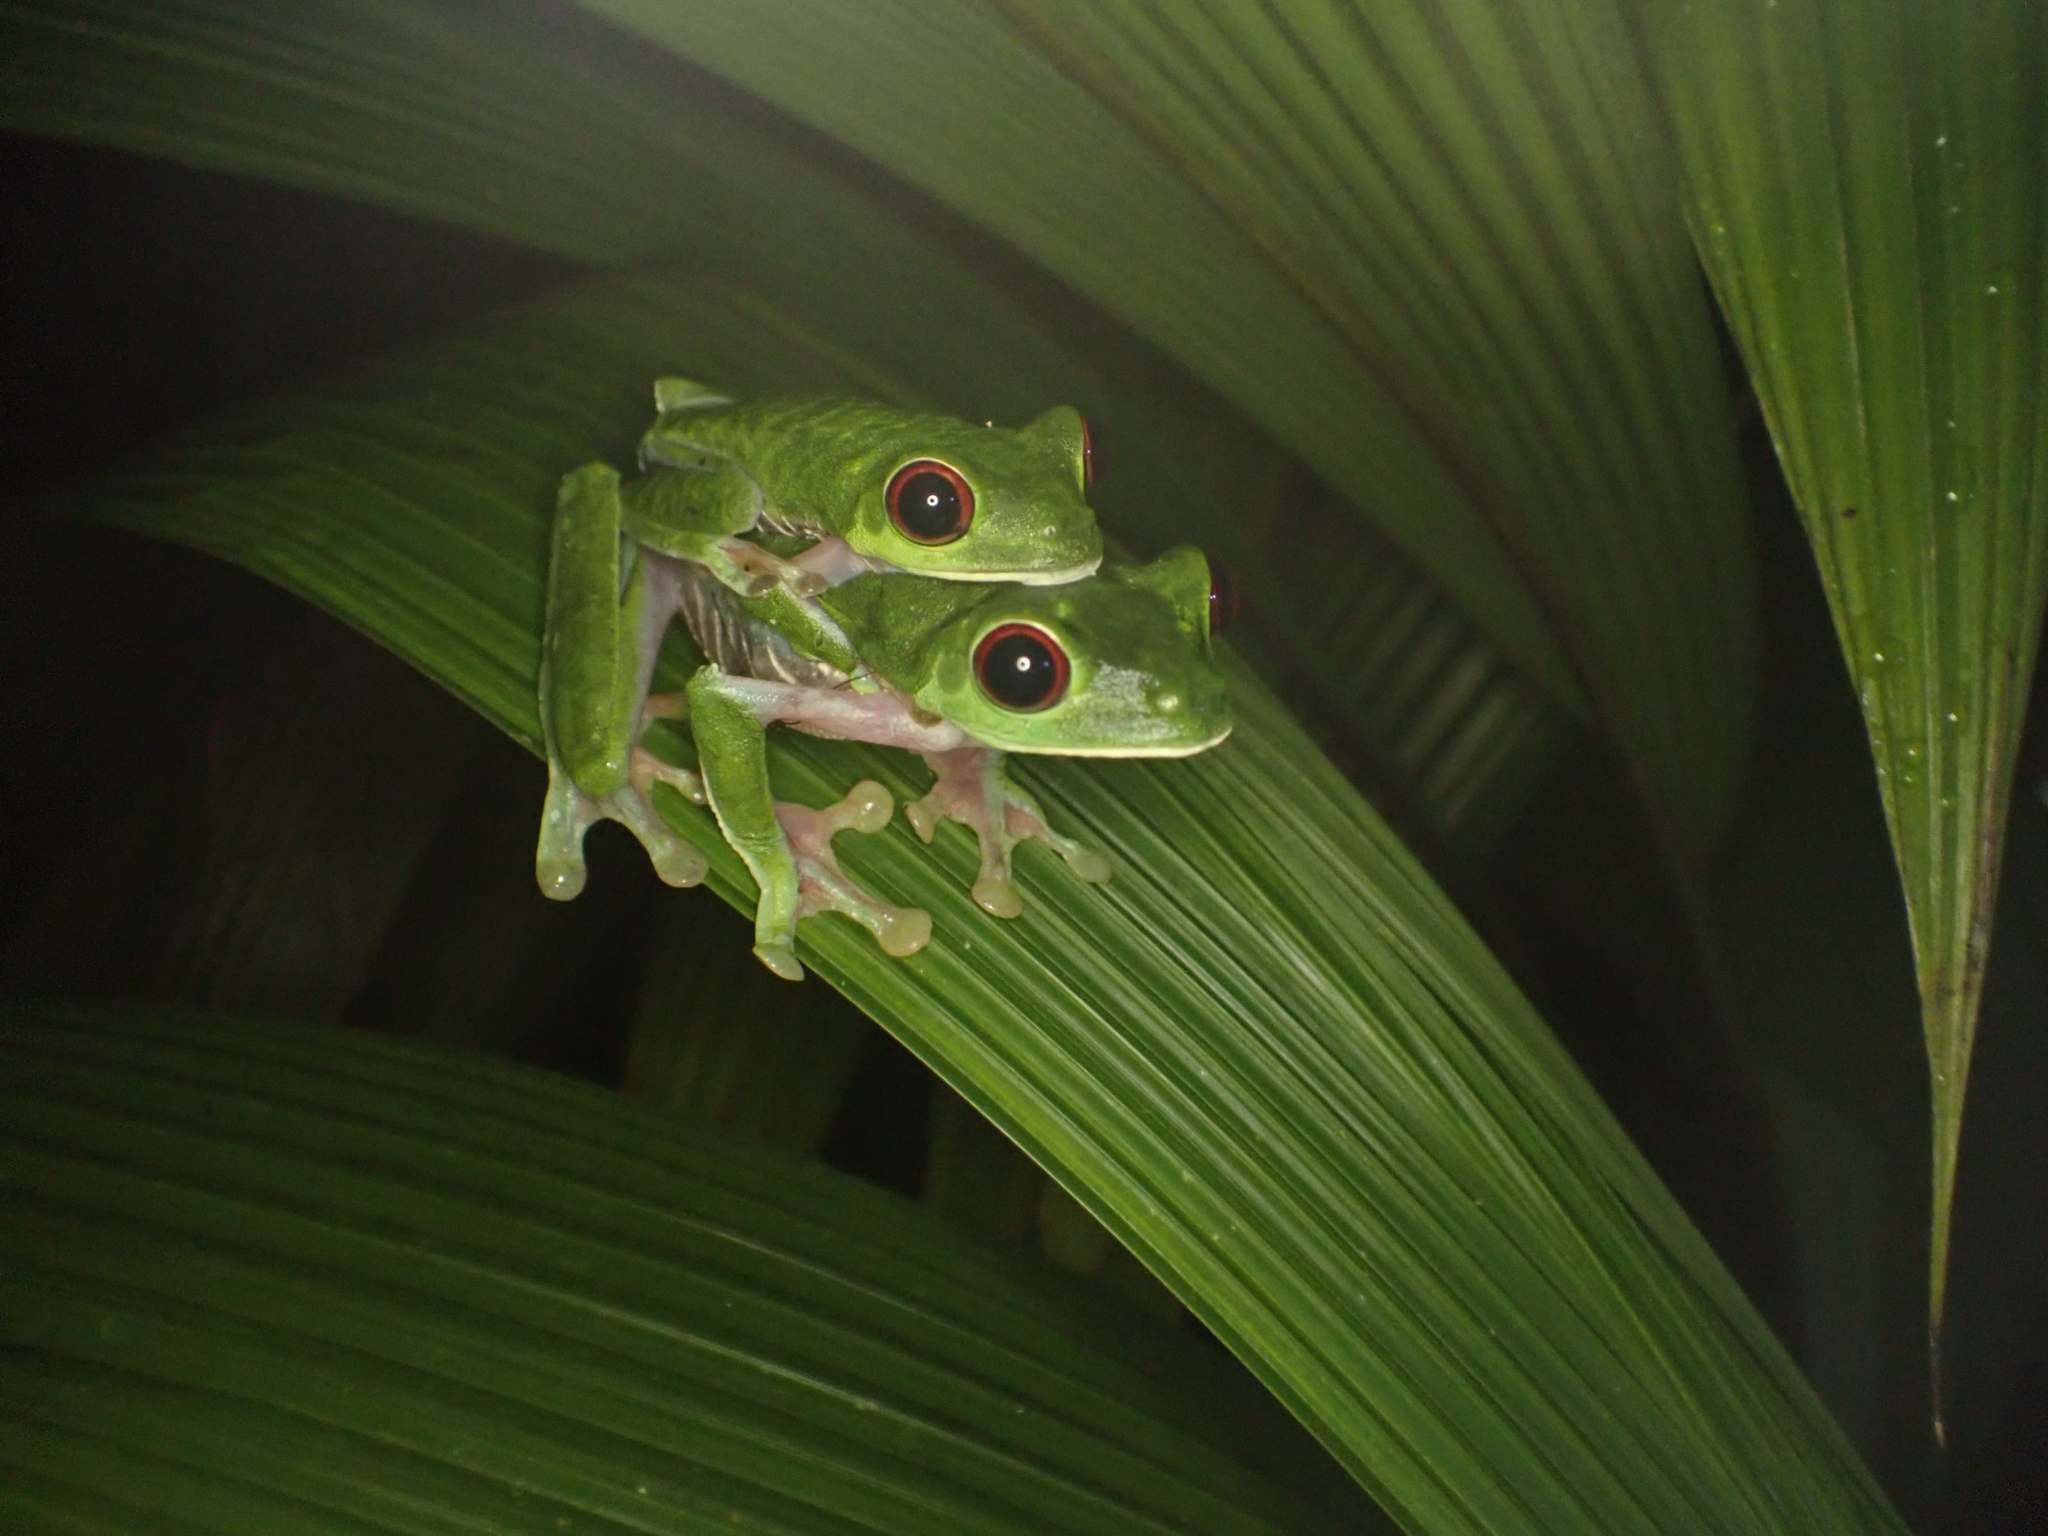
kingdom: Animalia
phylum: Chordata
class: Amphibia
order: Anura
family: Phyllomedusidae
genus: Agalychnis
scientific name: Agalychnis callidryas
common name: Red-eyed treefrog
